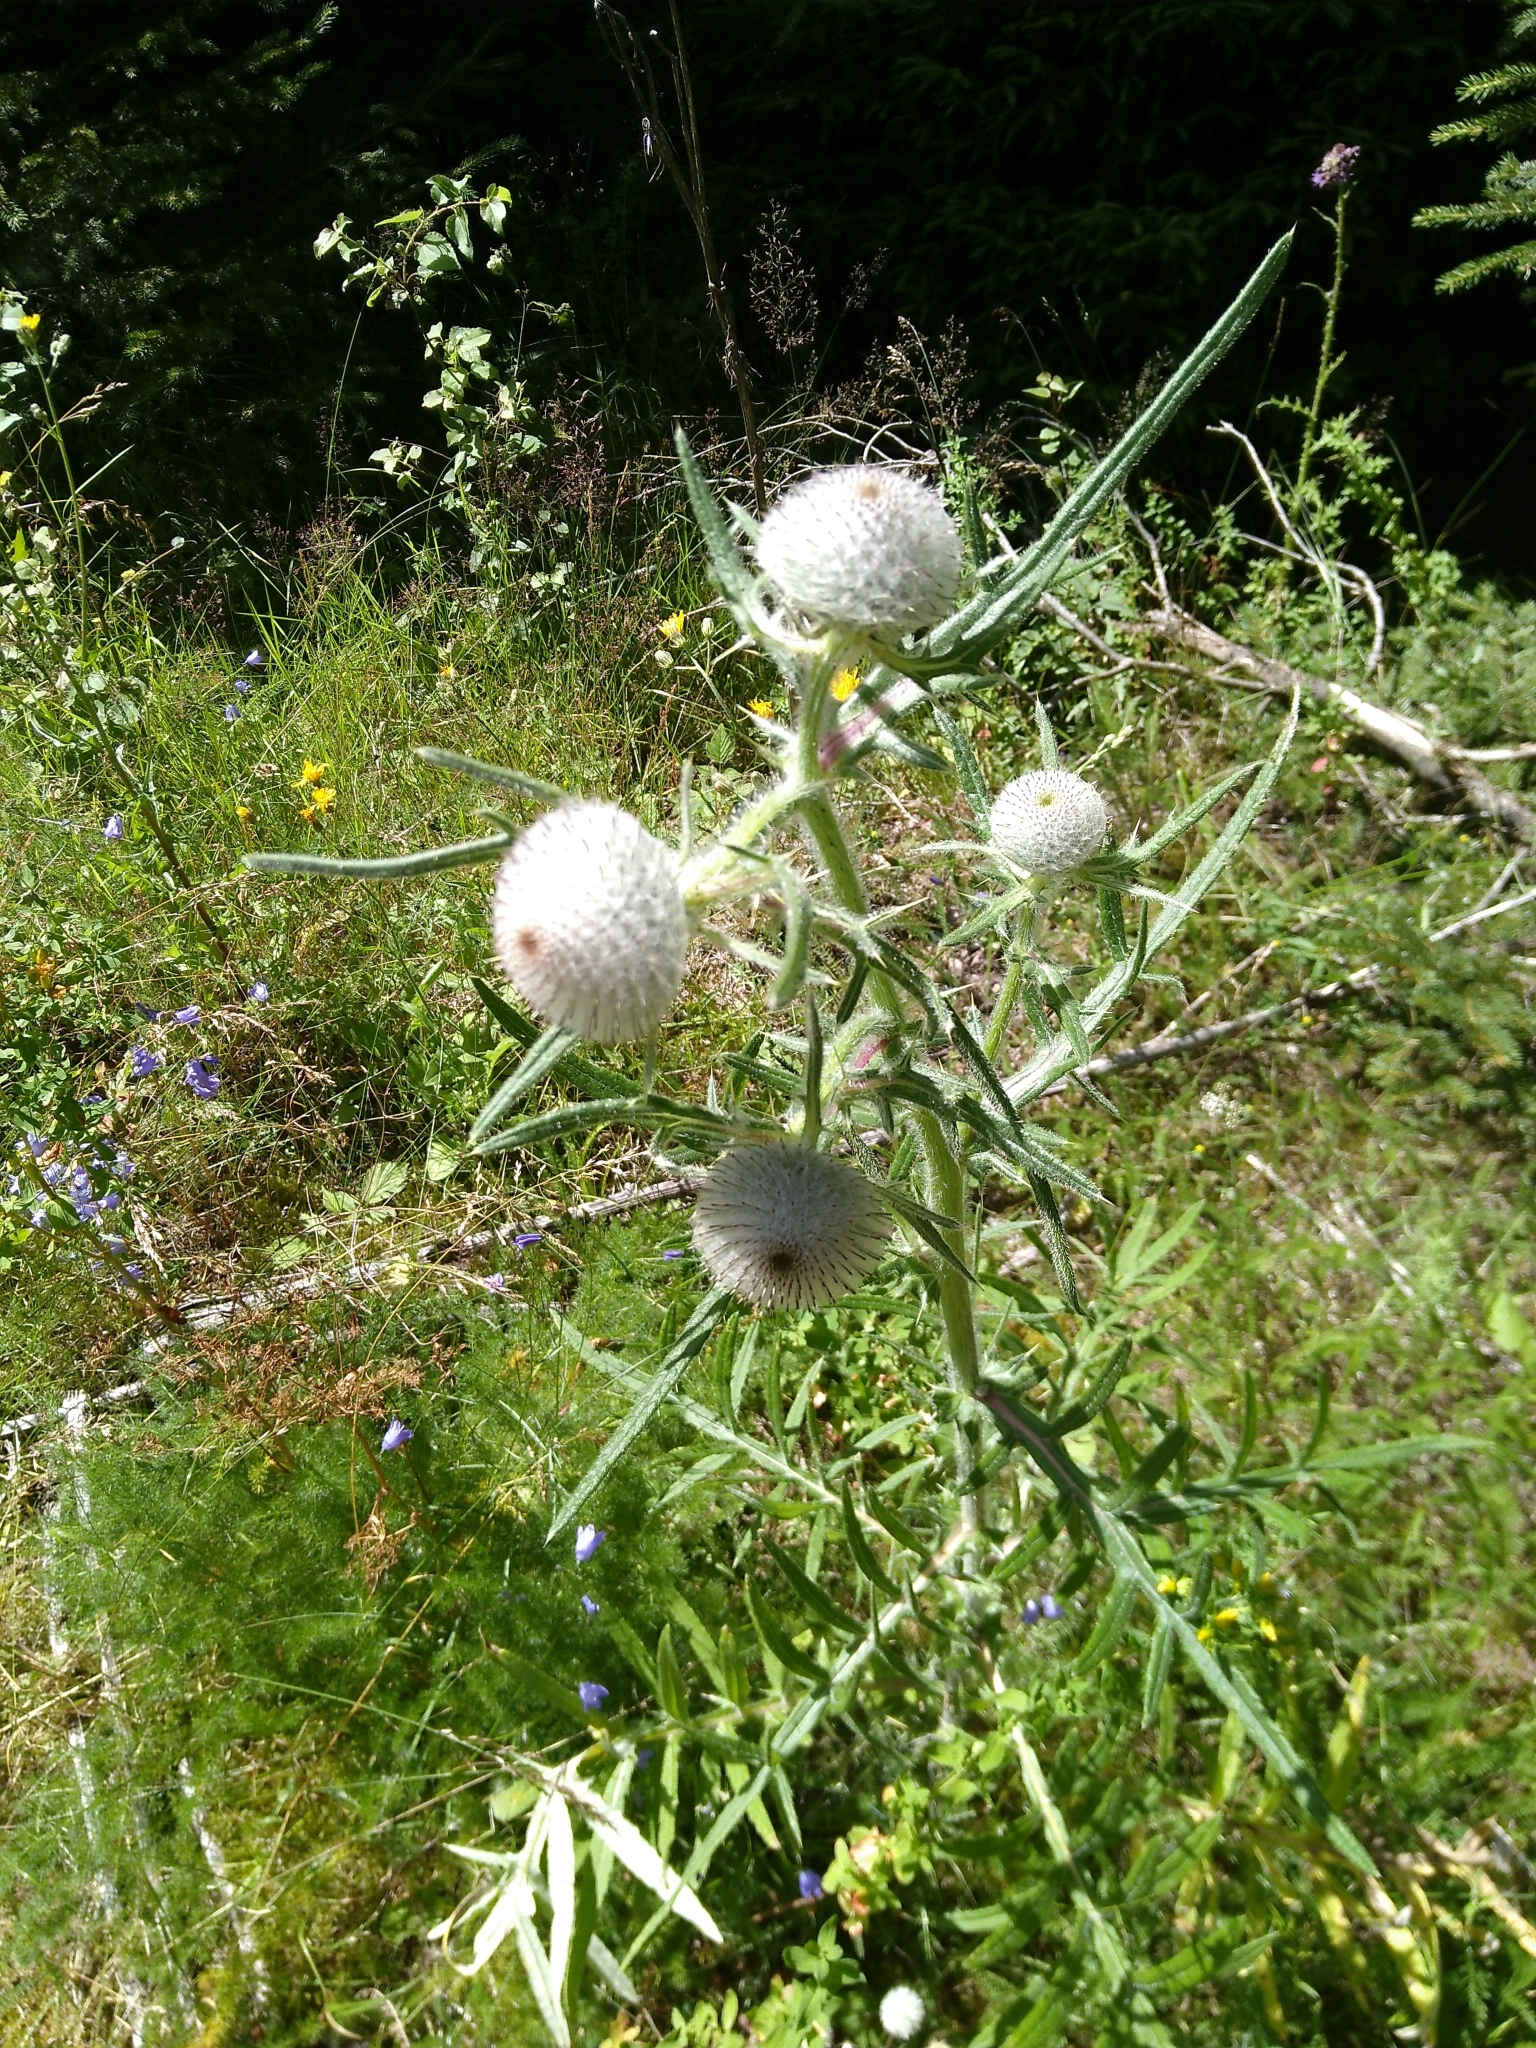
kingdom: Plantae
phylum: Tracheophyta
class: Magnoliopsida
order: Asterales
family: Asteraceae
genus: Lophiolepis
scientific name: Lophiolepis eriophora
